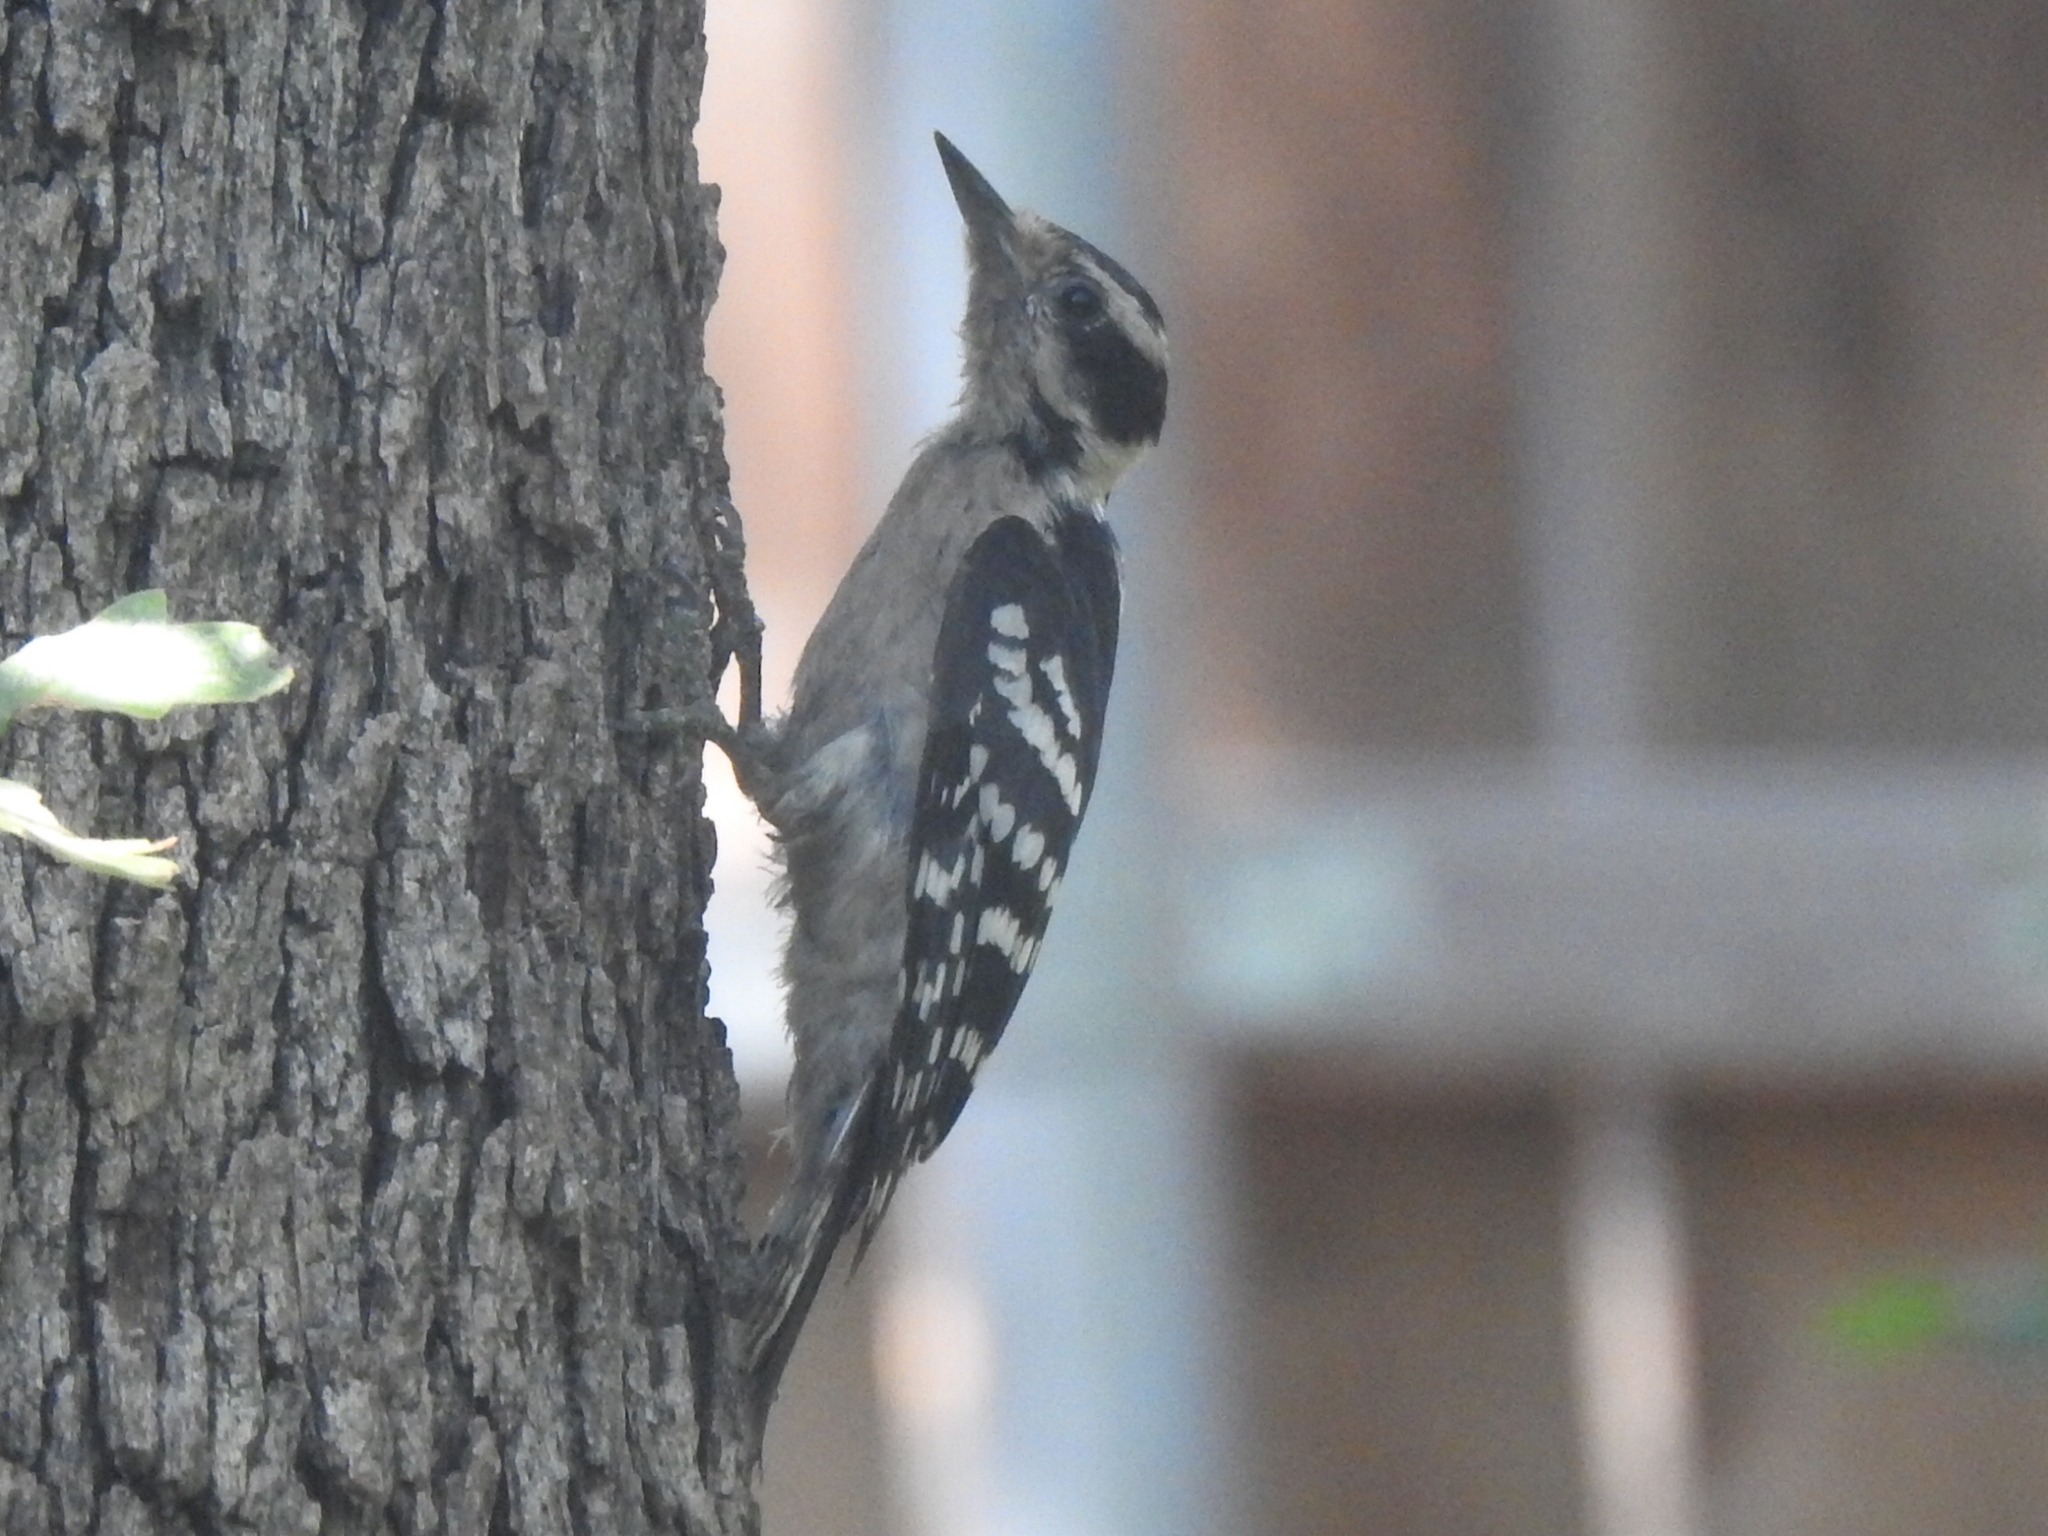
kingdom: Animalia
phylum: Chordata
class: Aves
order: Piciformes
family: Picidae
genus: Dryobates
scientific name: Dryobates pubescens
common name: Downy woodpecker
